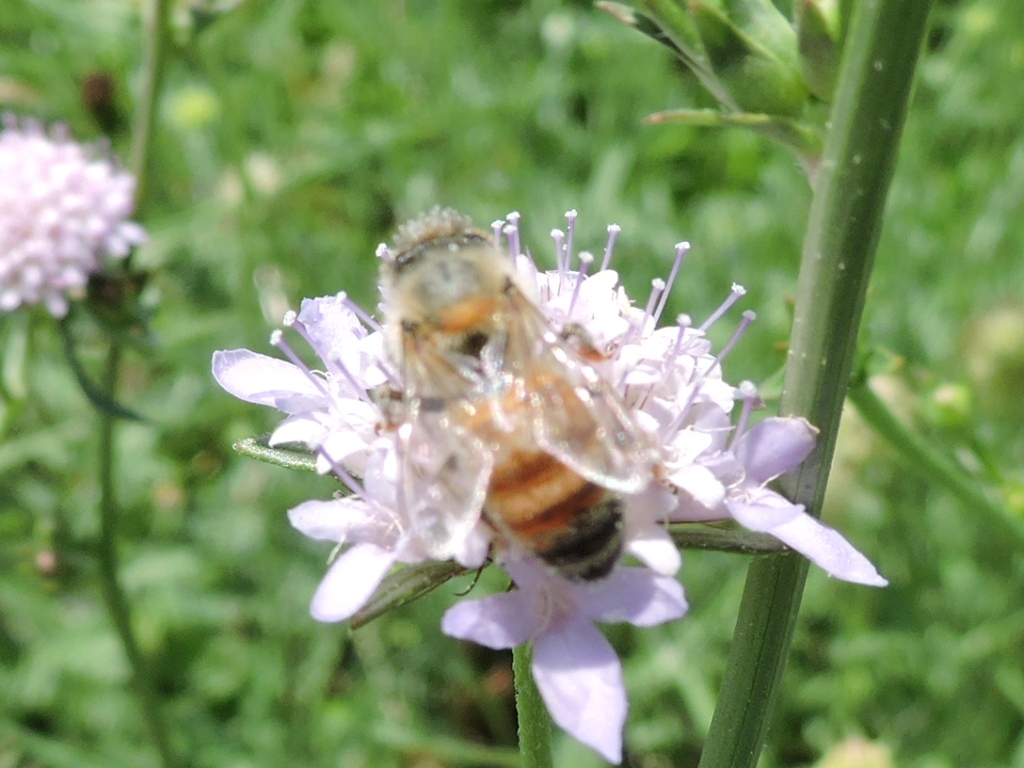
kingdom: Animalia
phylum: Arthropoda
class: Insecta
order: Hymenoptera
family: Apidae
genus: Apis
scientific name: Apis mellifera
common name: Honey bee
